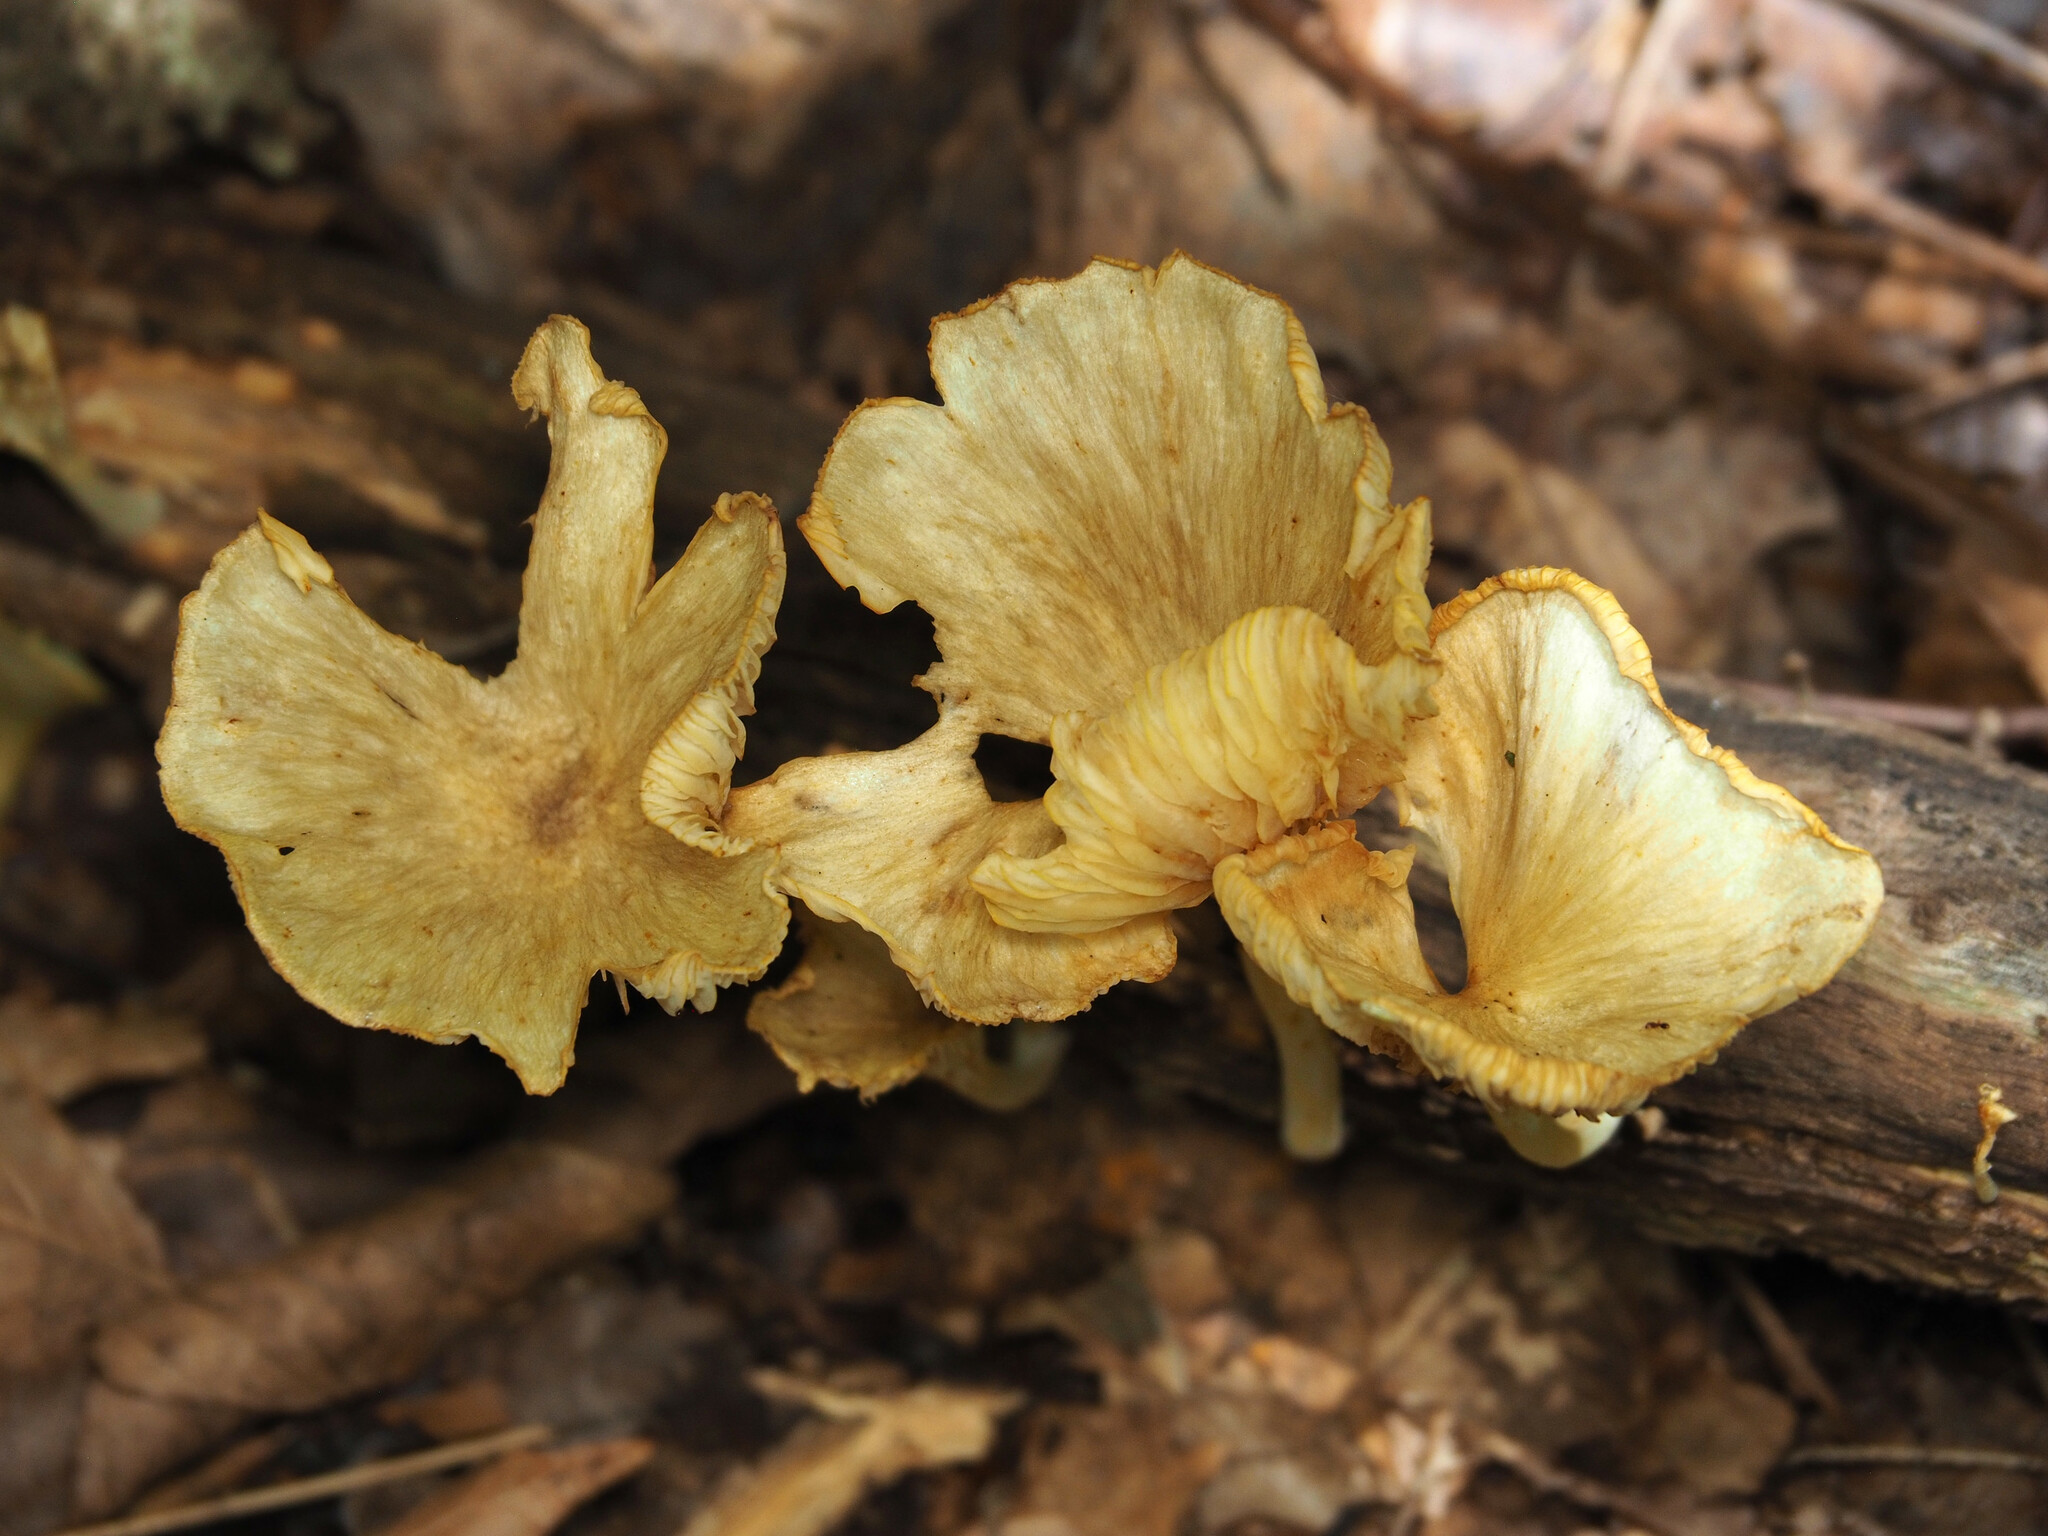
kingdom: Fungi
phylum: Basidiomycota
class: Agaricomycetes
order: Agaricales
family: Marasmiaceae
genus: Gerronema
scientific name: Gerronema strombodes
